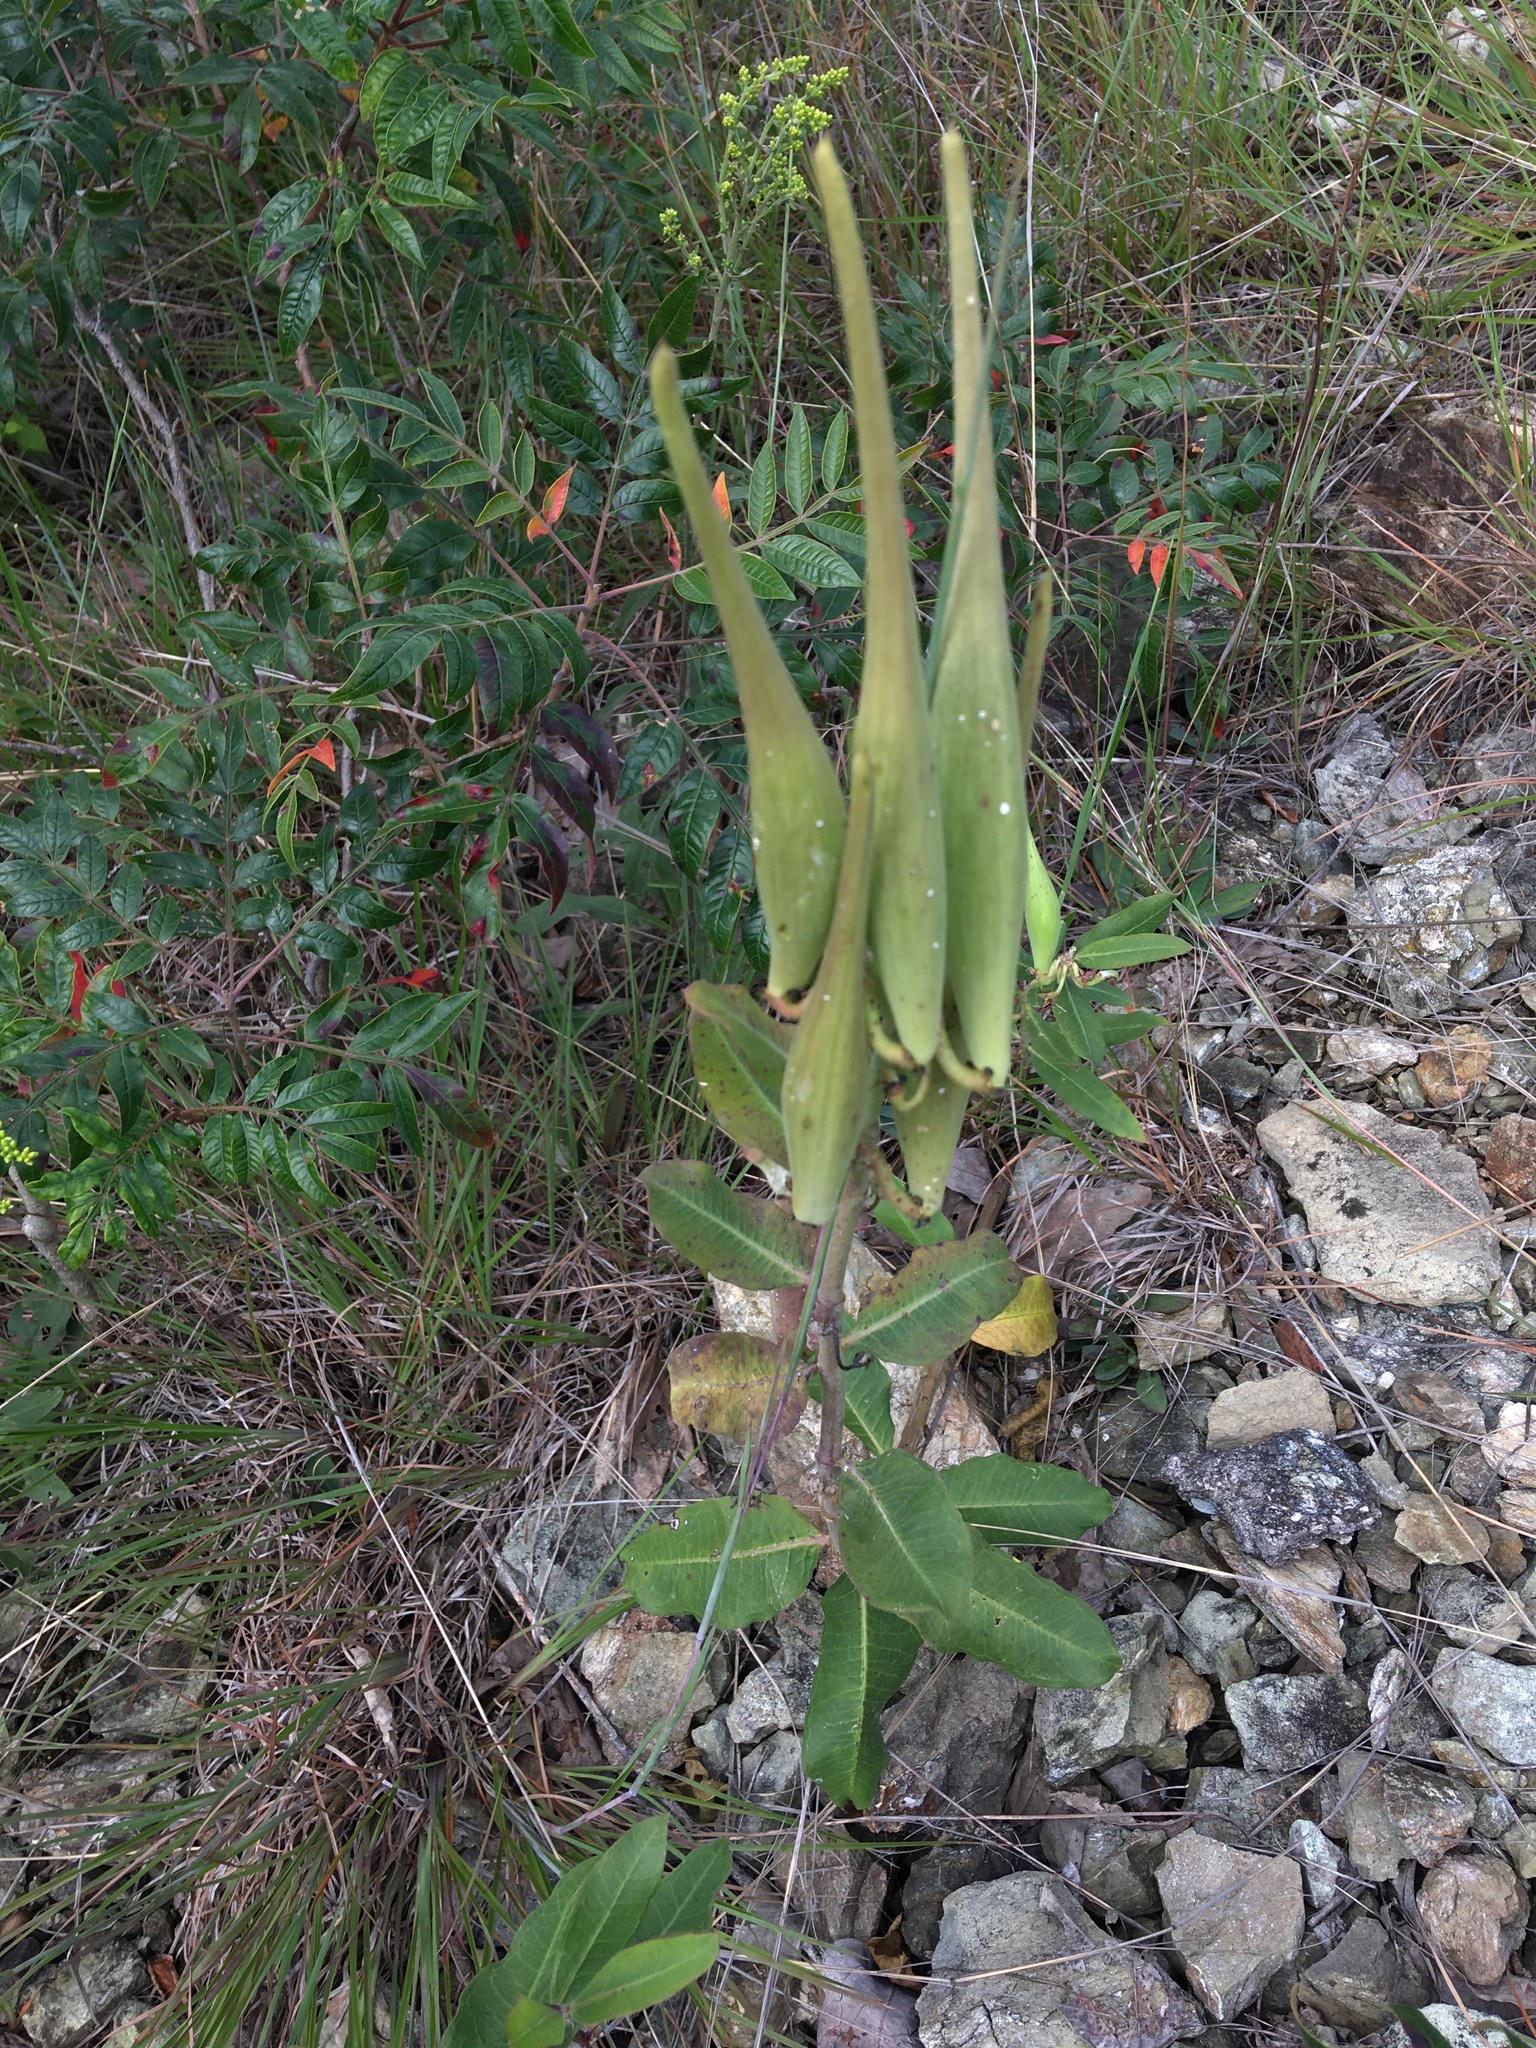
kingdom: Plantae
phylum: Tracheophyta
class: Magnoliopsida
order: Gentianales
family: Apocynaceae
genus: Asclepias
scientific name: Asclepias viridiflora
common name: Green comet milkweed
